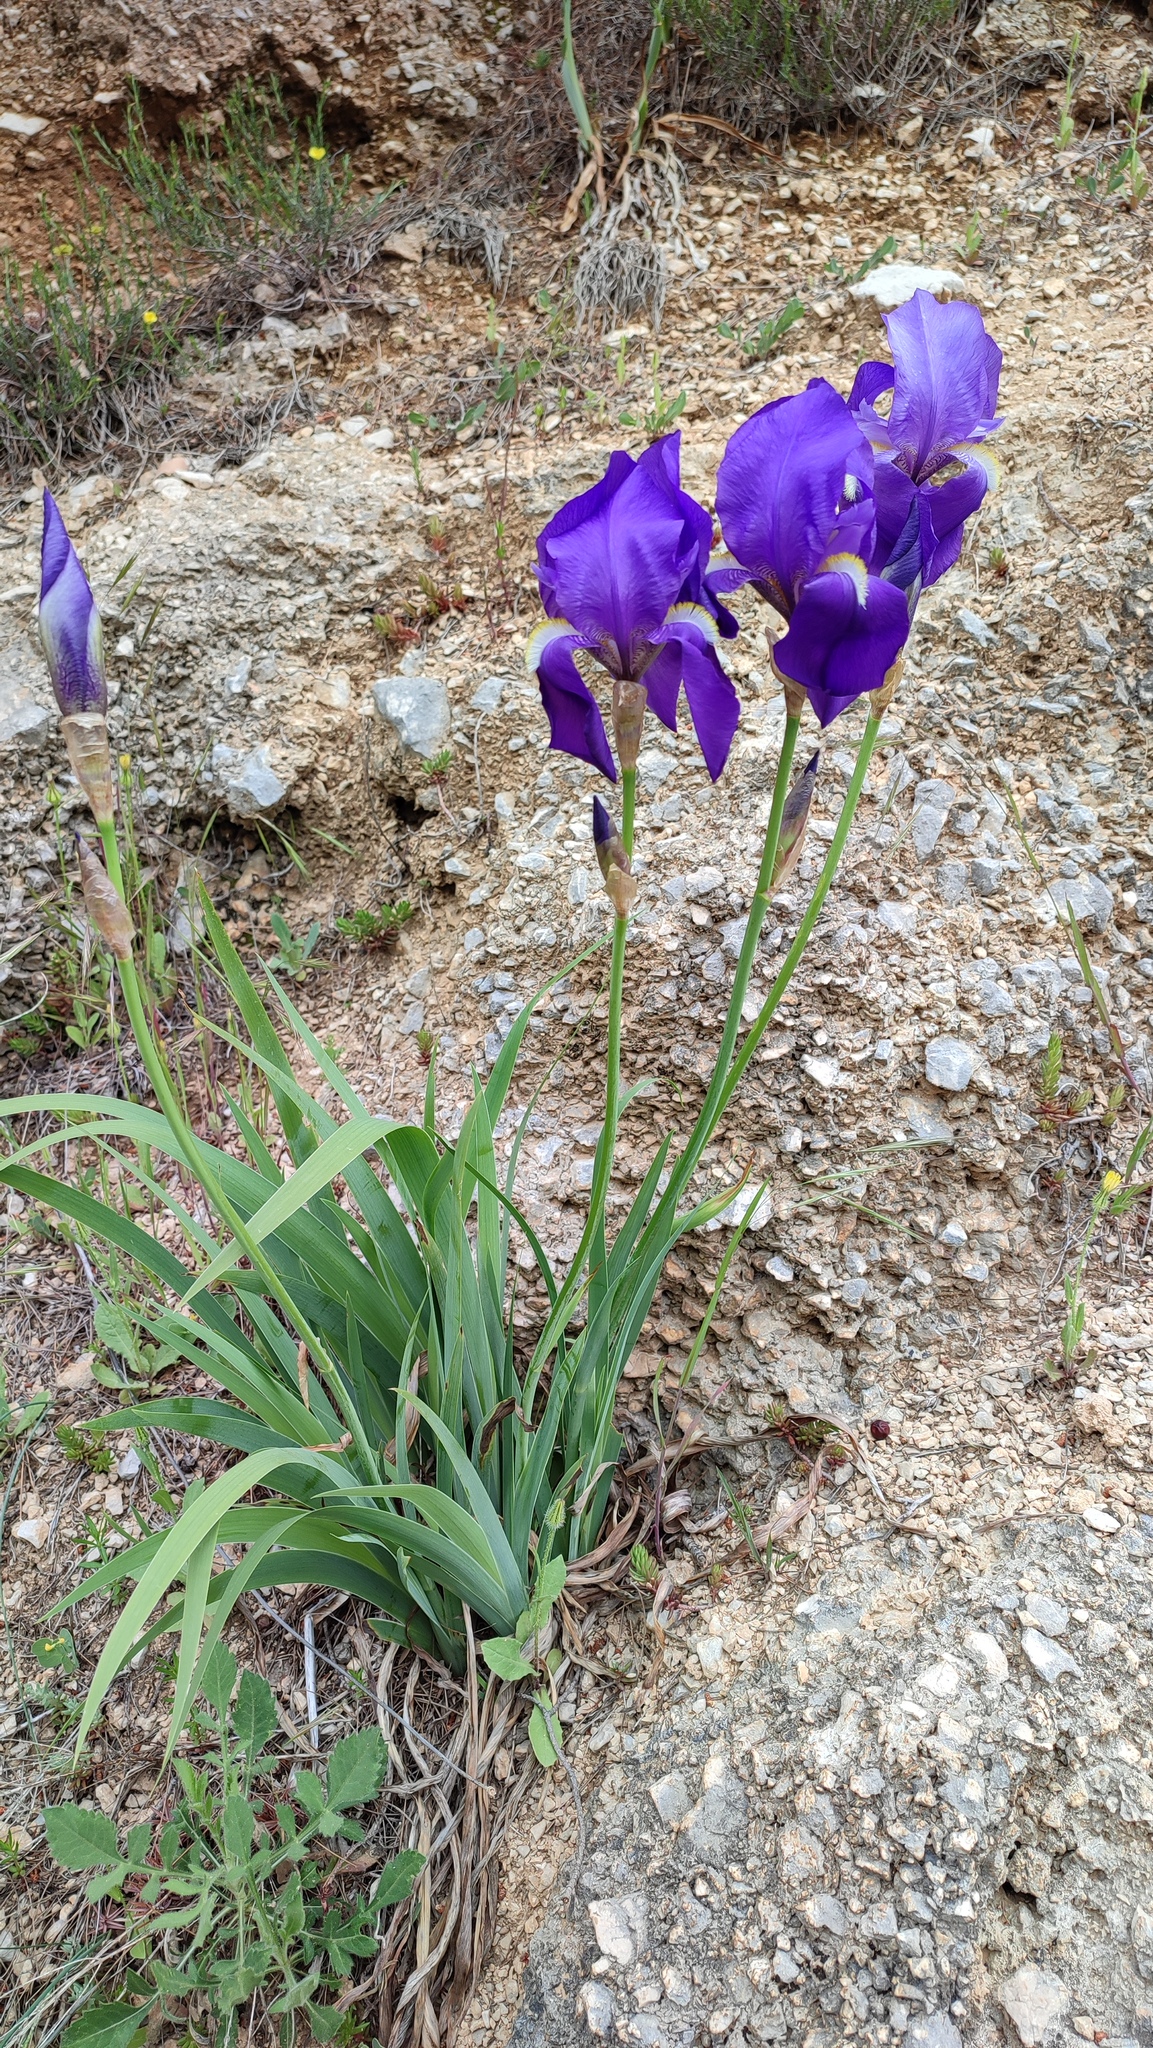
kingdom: Plantae
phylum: Tracheophyta
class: Liliopsida
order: Asparagales
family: Iridaceae
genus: Iris
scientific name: Iris pallida
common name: Sweet iris
